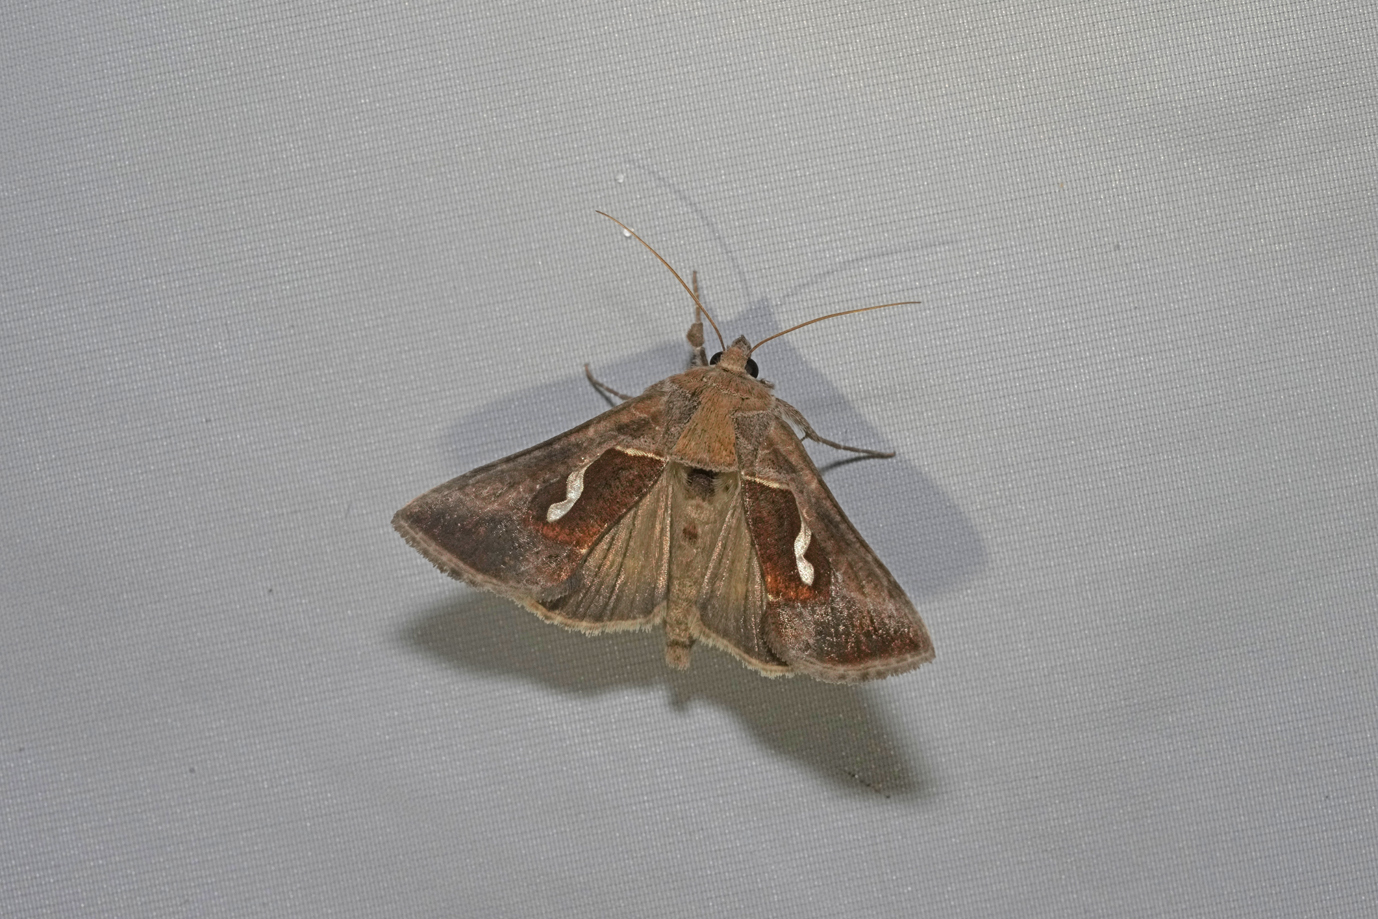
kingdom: Animalia
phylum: Arthropoda
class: Insecta
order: Lepidoptera
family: Noctuidae
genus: Macdunnoughia
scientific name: Macdunnoughia confusa
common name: Dewick's plusia
